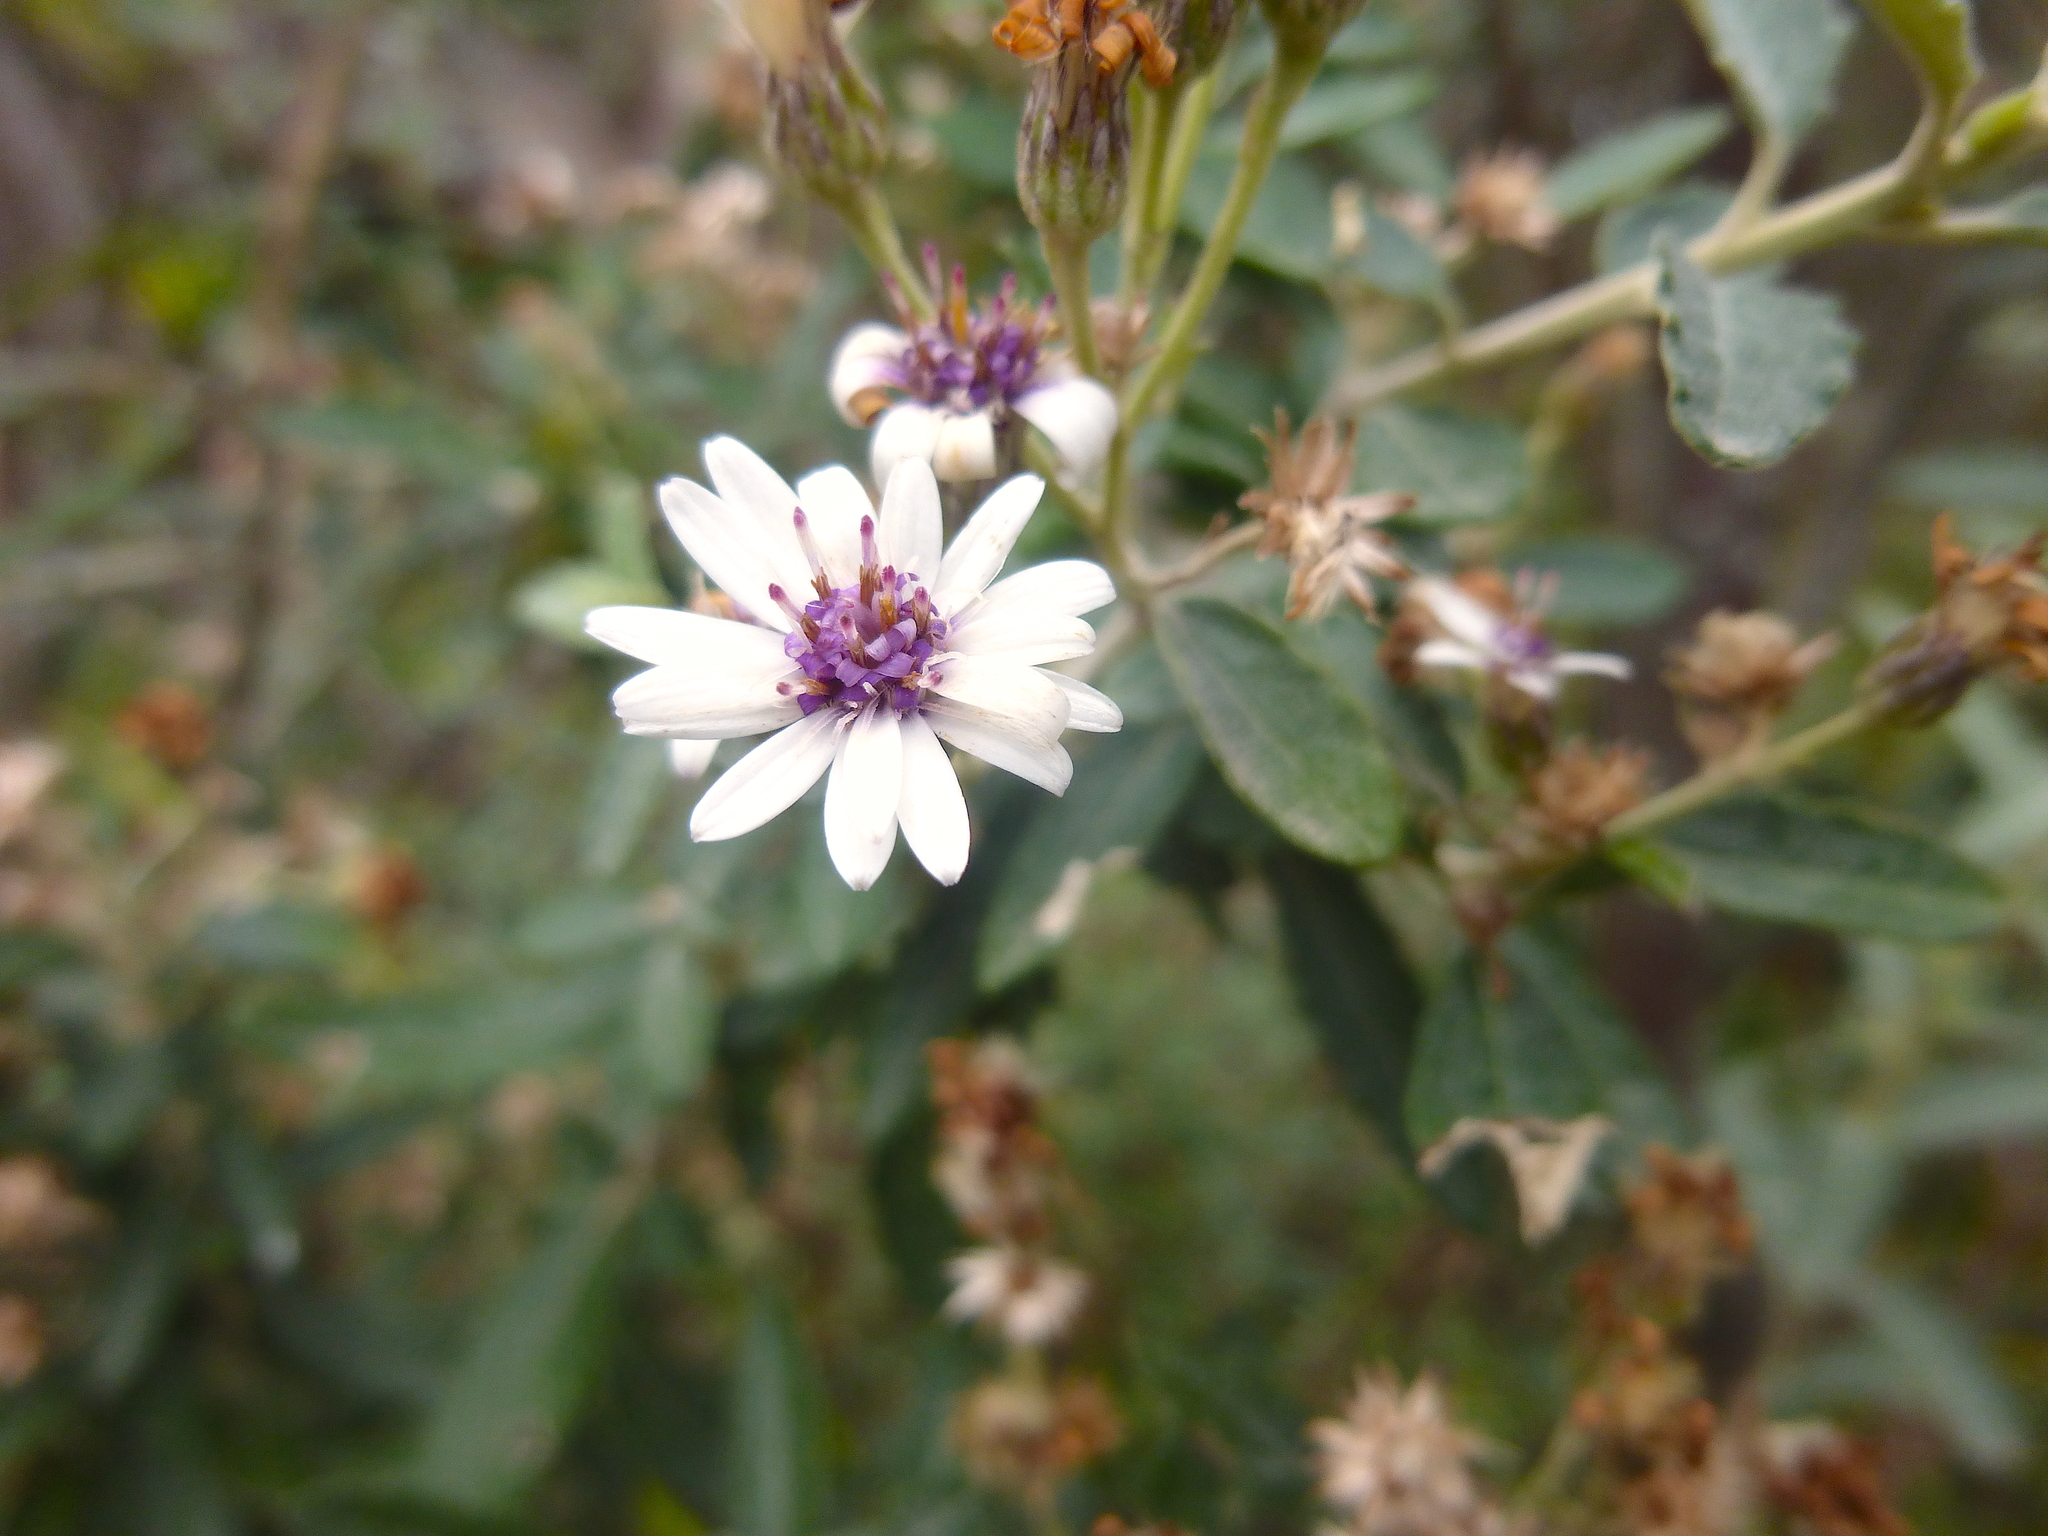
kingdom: Plantae
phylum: Tracheophyta
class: Magnoliopsida
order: Asterales
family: Asteraceae
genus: Olearia
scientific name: Olearia phlogopappa
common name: Alpine daisybush
